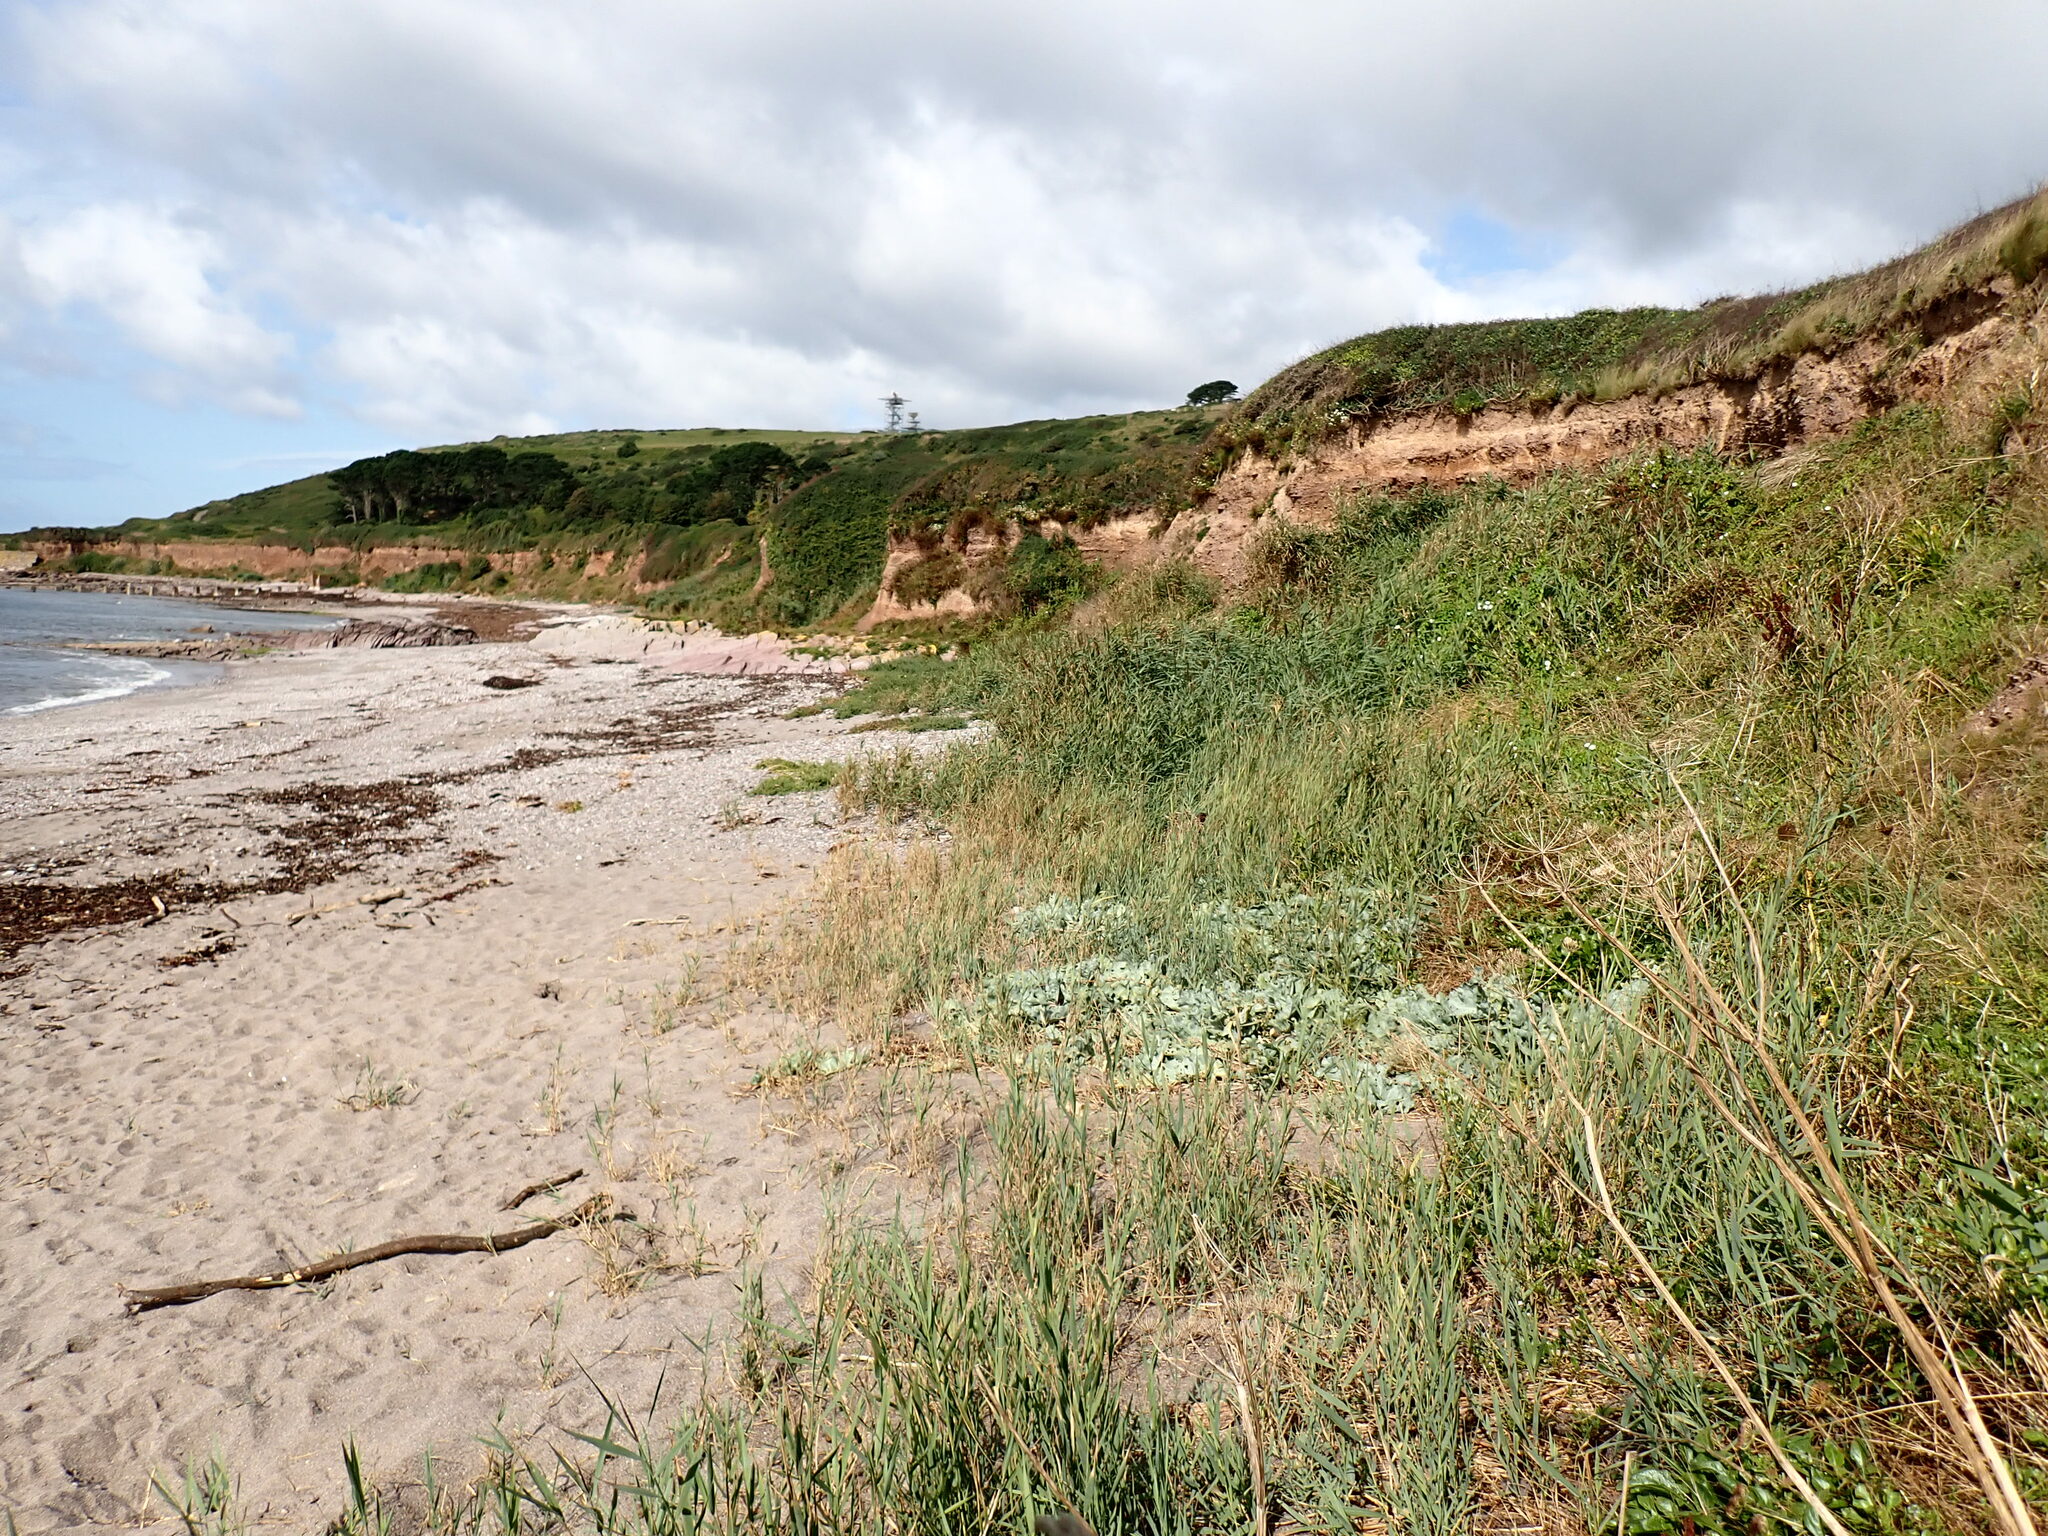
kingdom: Plantae
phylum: Tracheophyta
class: Magnoliopsida
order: Brassicales
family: Brassicaceae
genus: Crambe
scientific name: Crambe maritima
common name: Sea-kale
